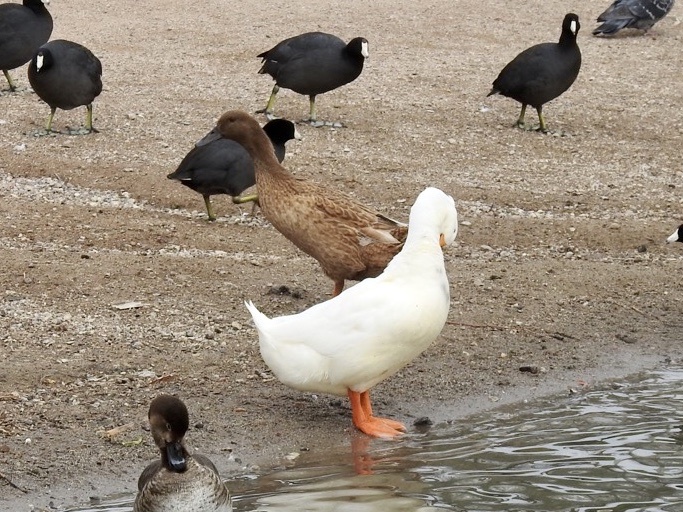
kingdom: Animalia
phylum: Chordata
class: Aves
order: Anseriformes
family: Anatidae
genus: Anas
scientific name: Anas platyrhynchos
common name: Mallard
